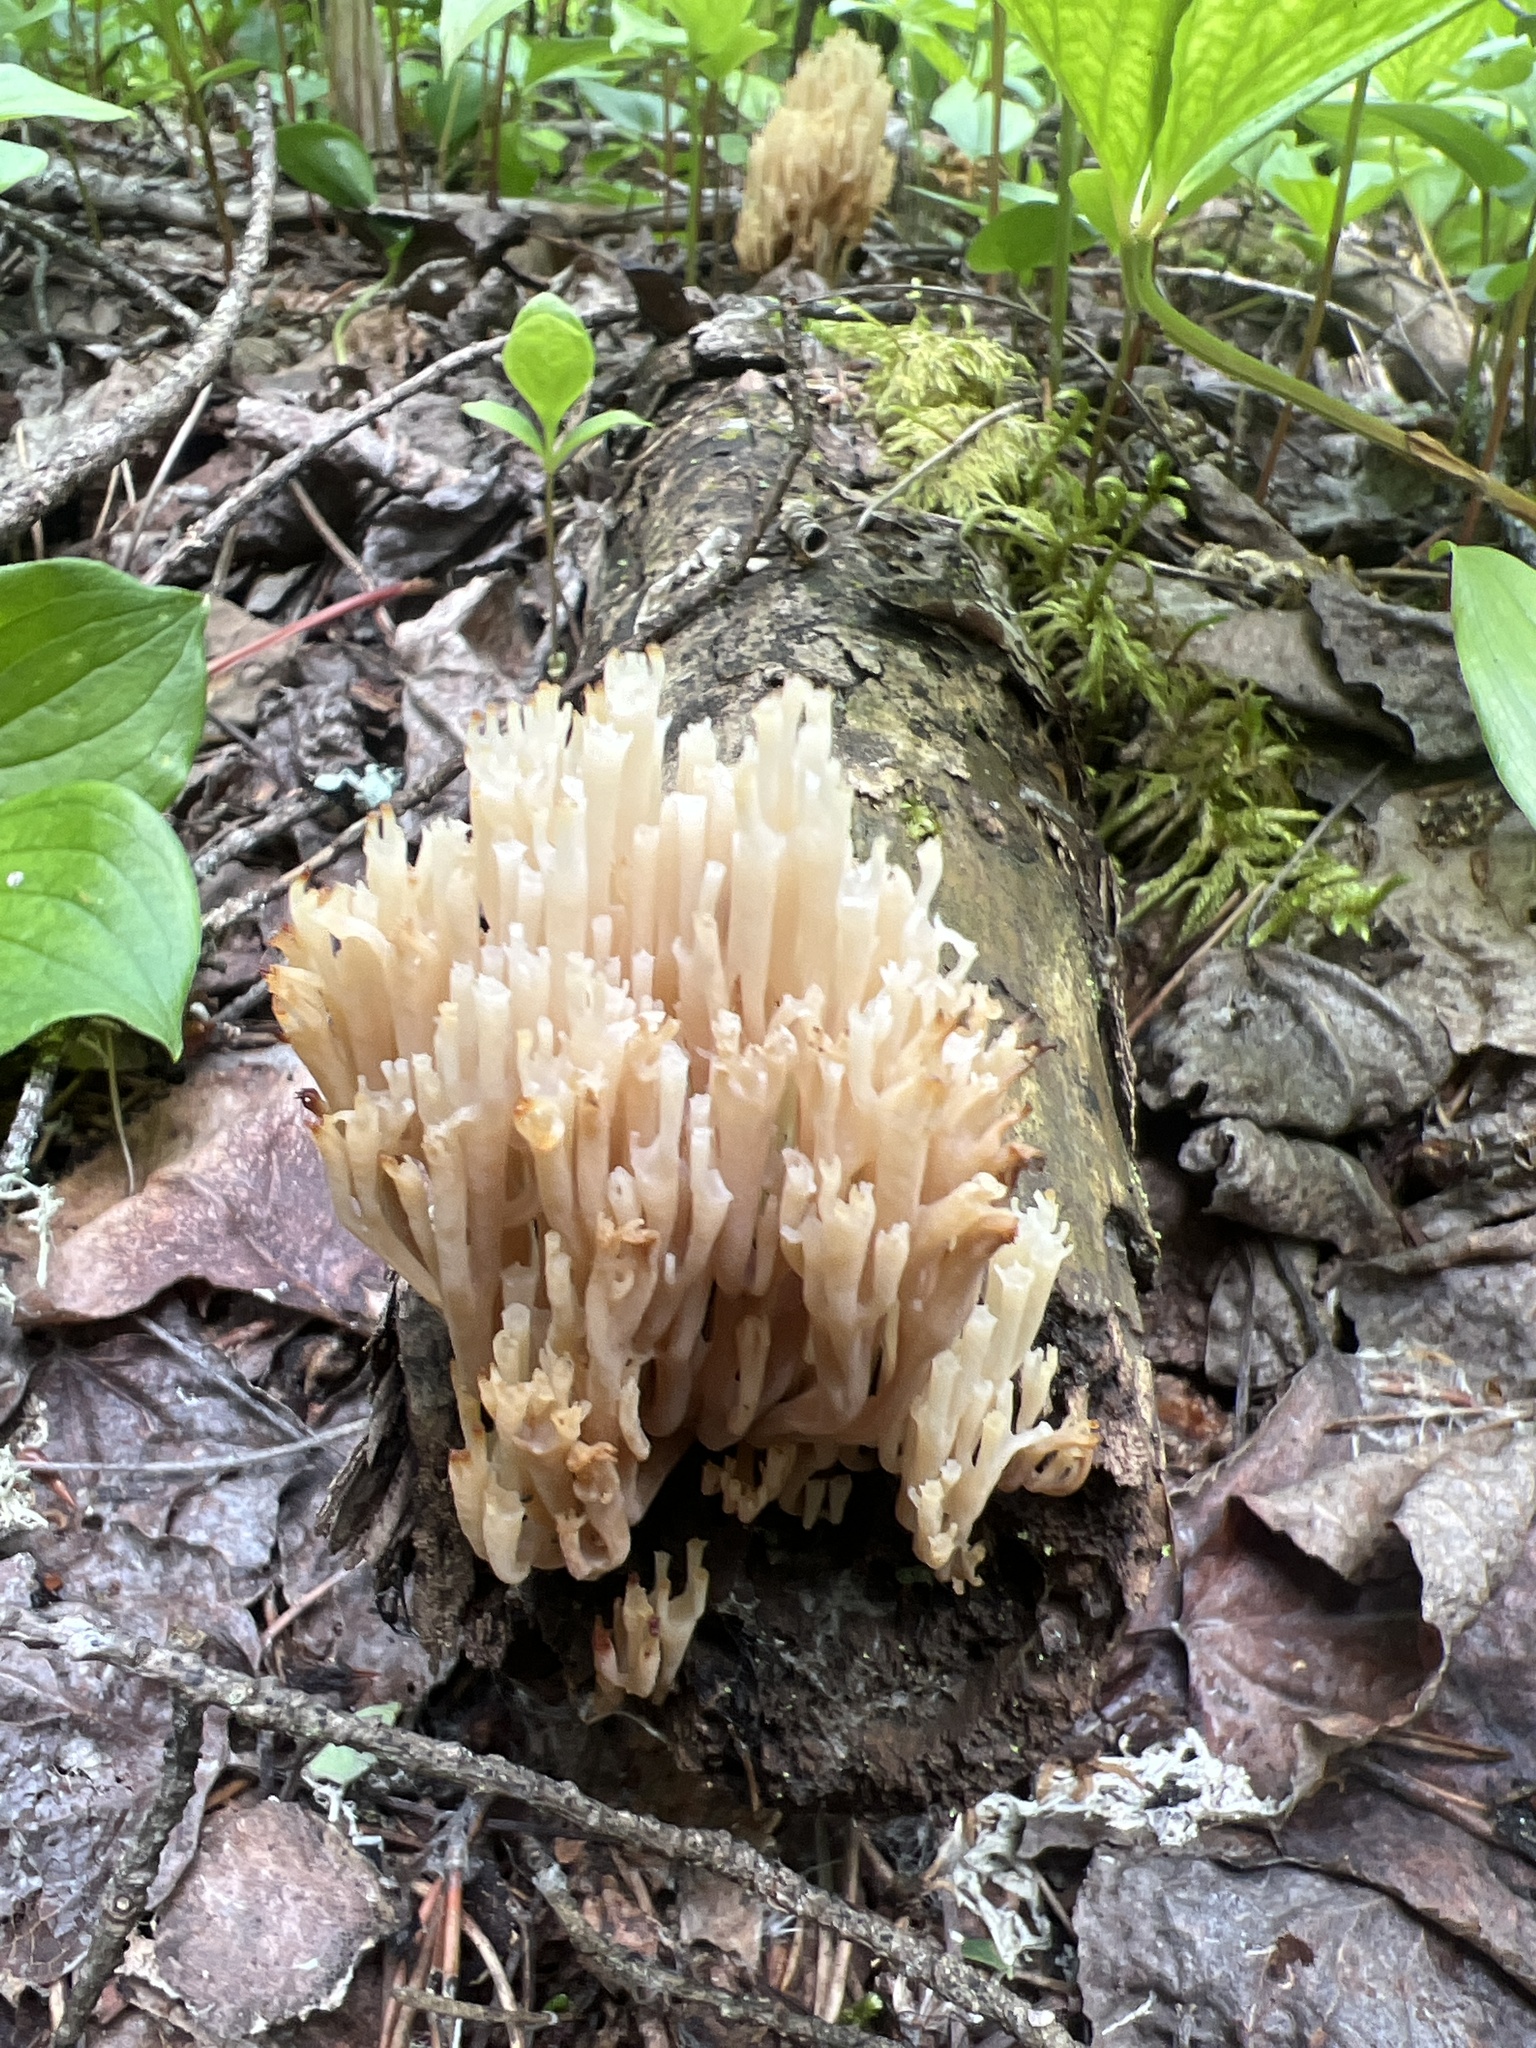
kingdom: Fungi
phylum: Basidiomycota
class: Agaricomycetes
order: Russulales
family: Auriscalpiaceae
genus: Artomyces
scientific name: Artomyces pyxidatus
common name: Crown-tipped coral fungus
